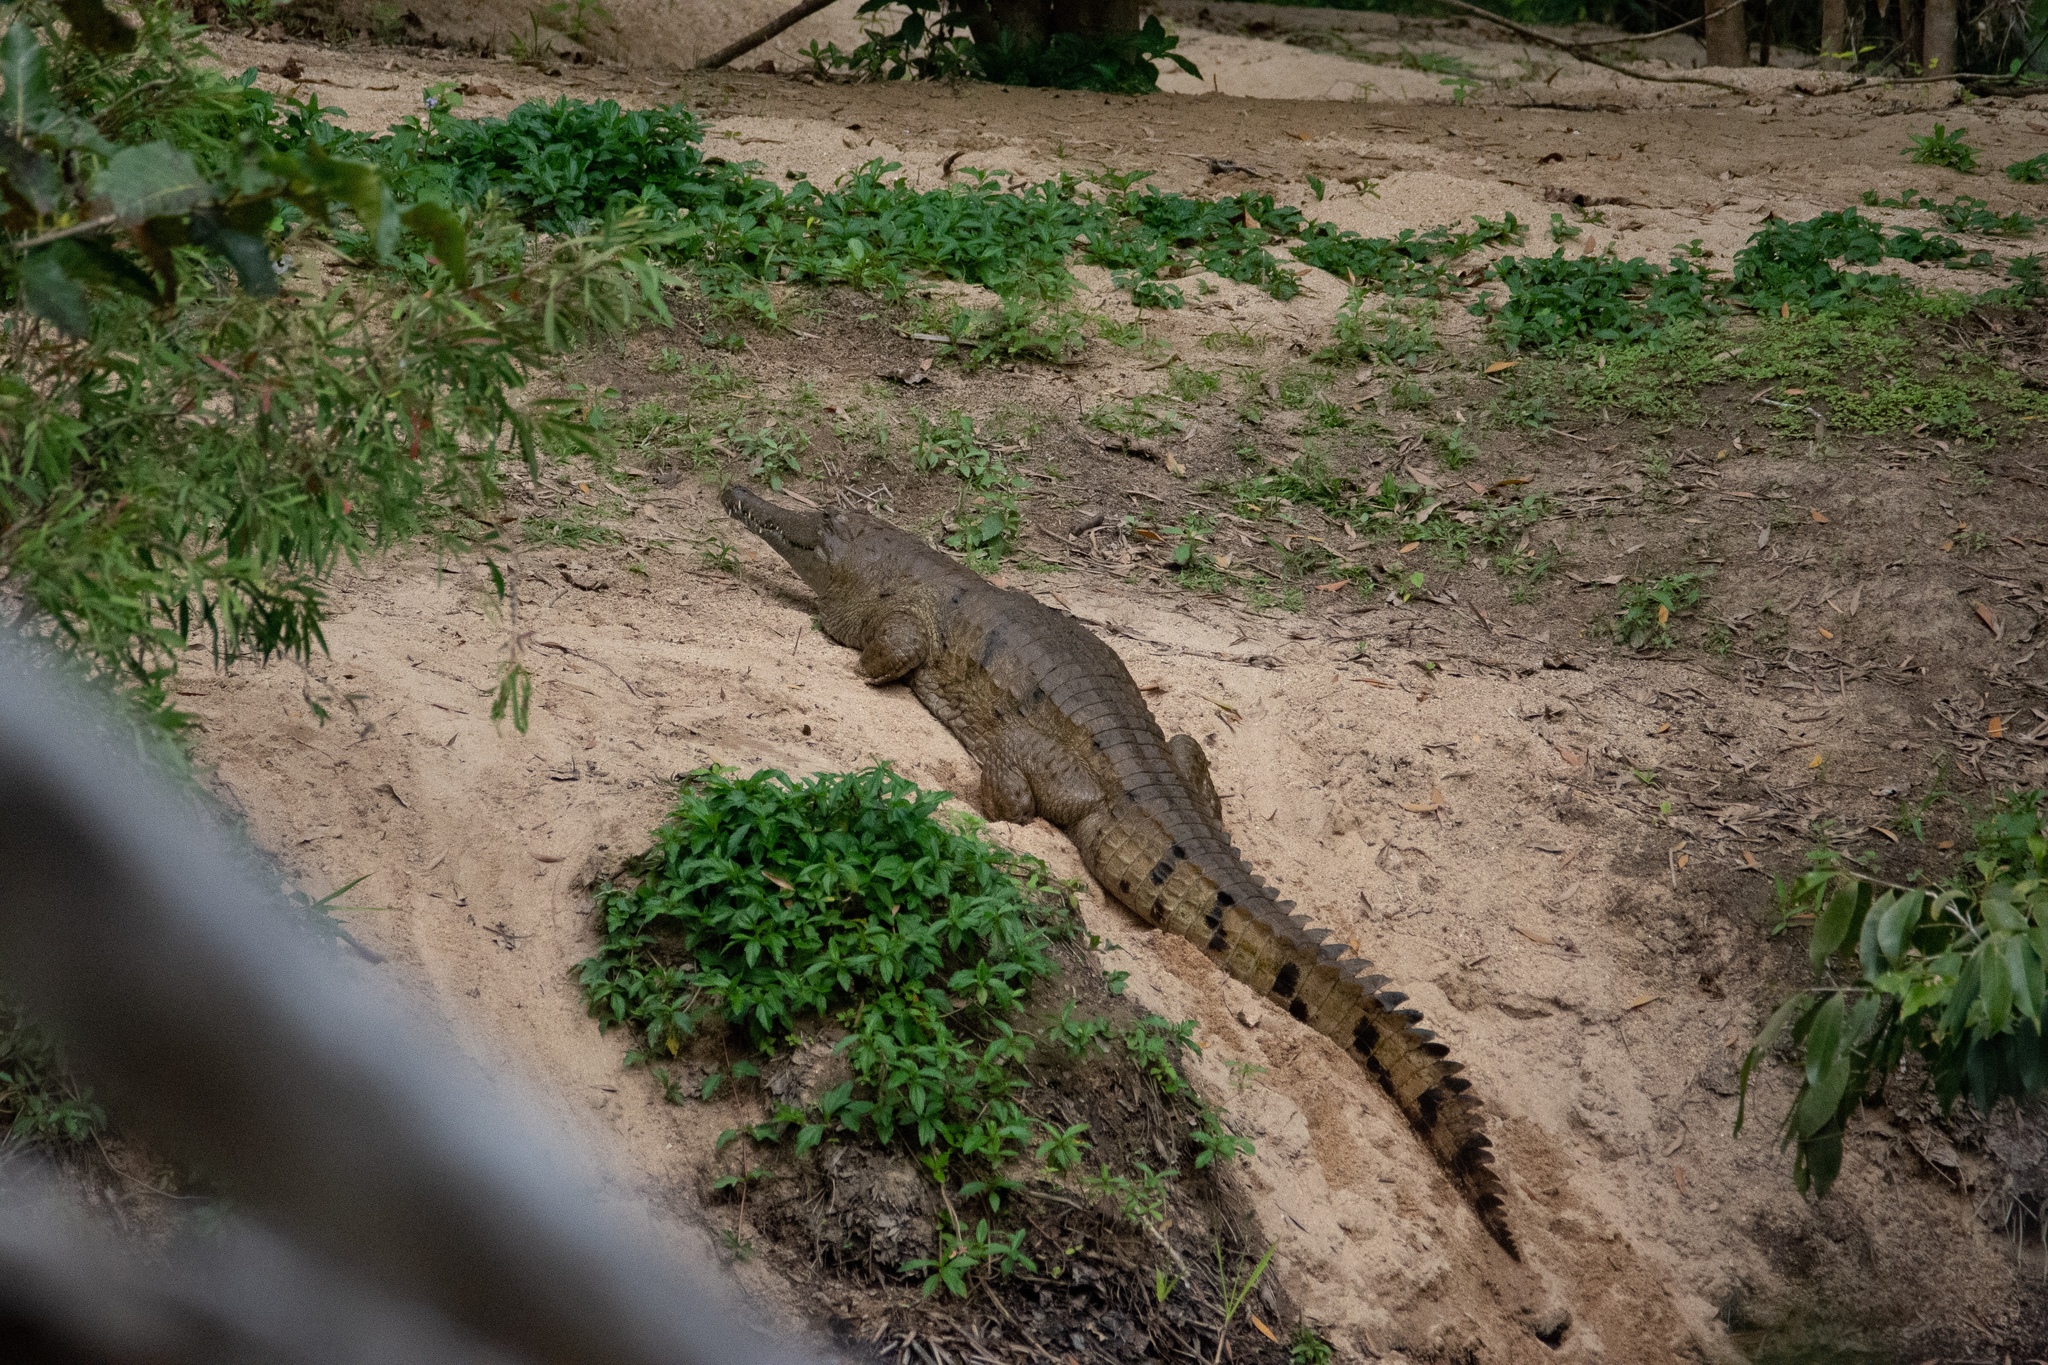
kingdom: Animalia
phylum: Chordata
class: Crocodylia
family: Crocodylidae
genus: Crocodylus
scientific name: Crocodylus johnsoni
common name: Freshwater crocodile
